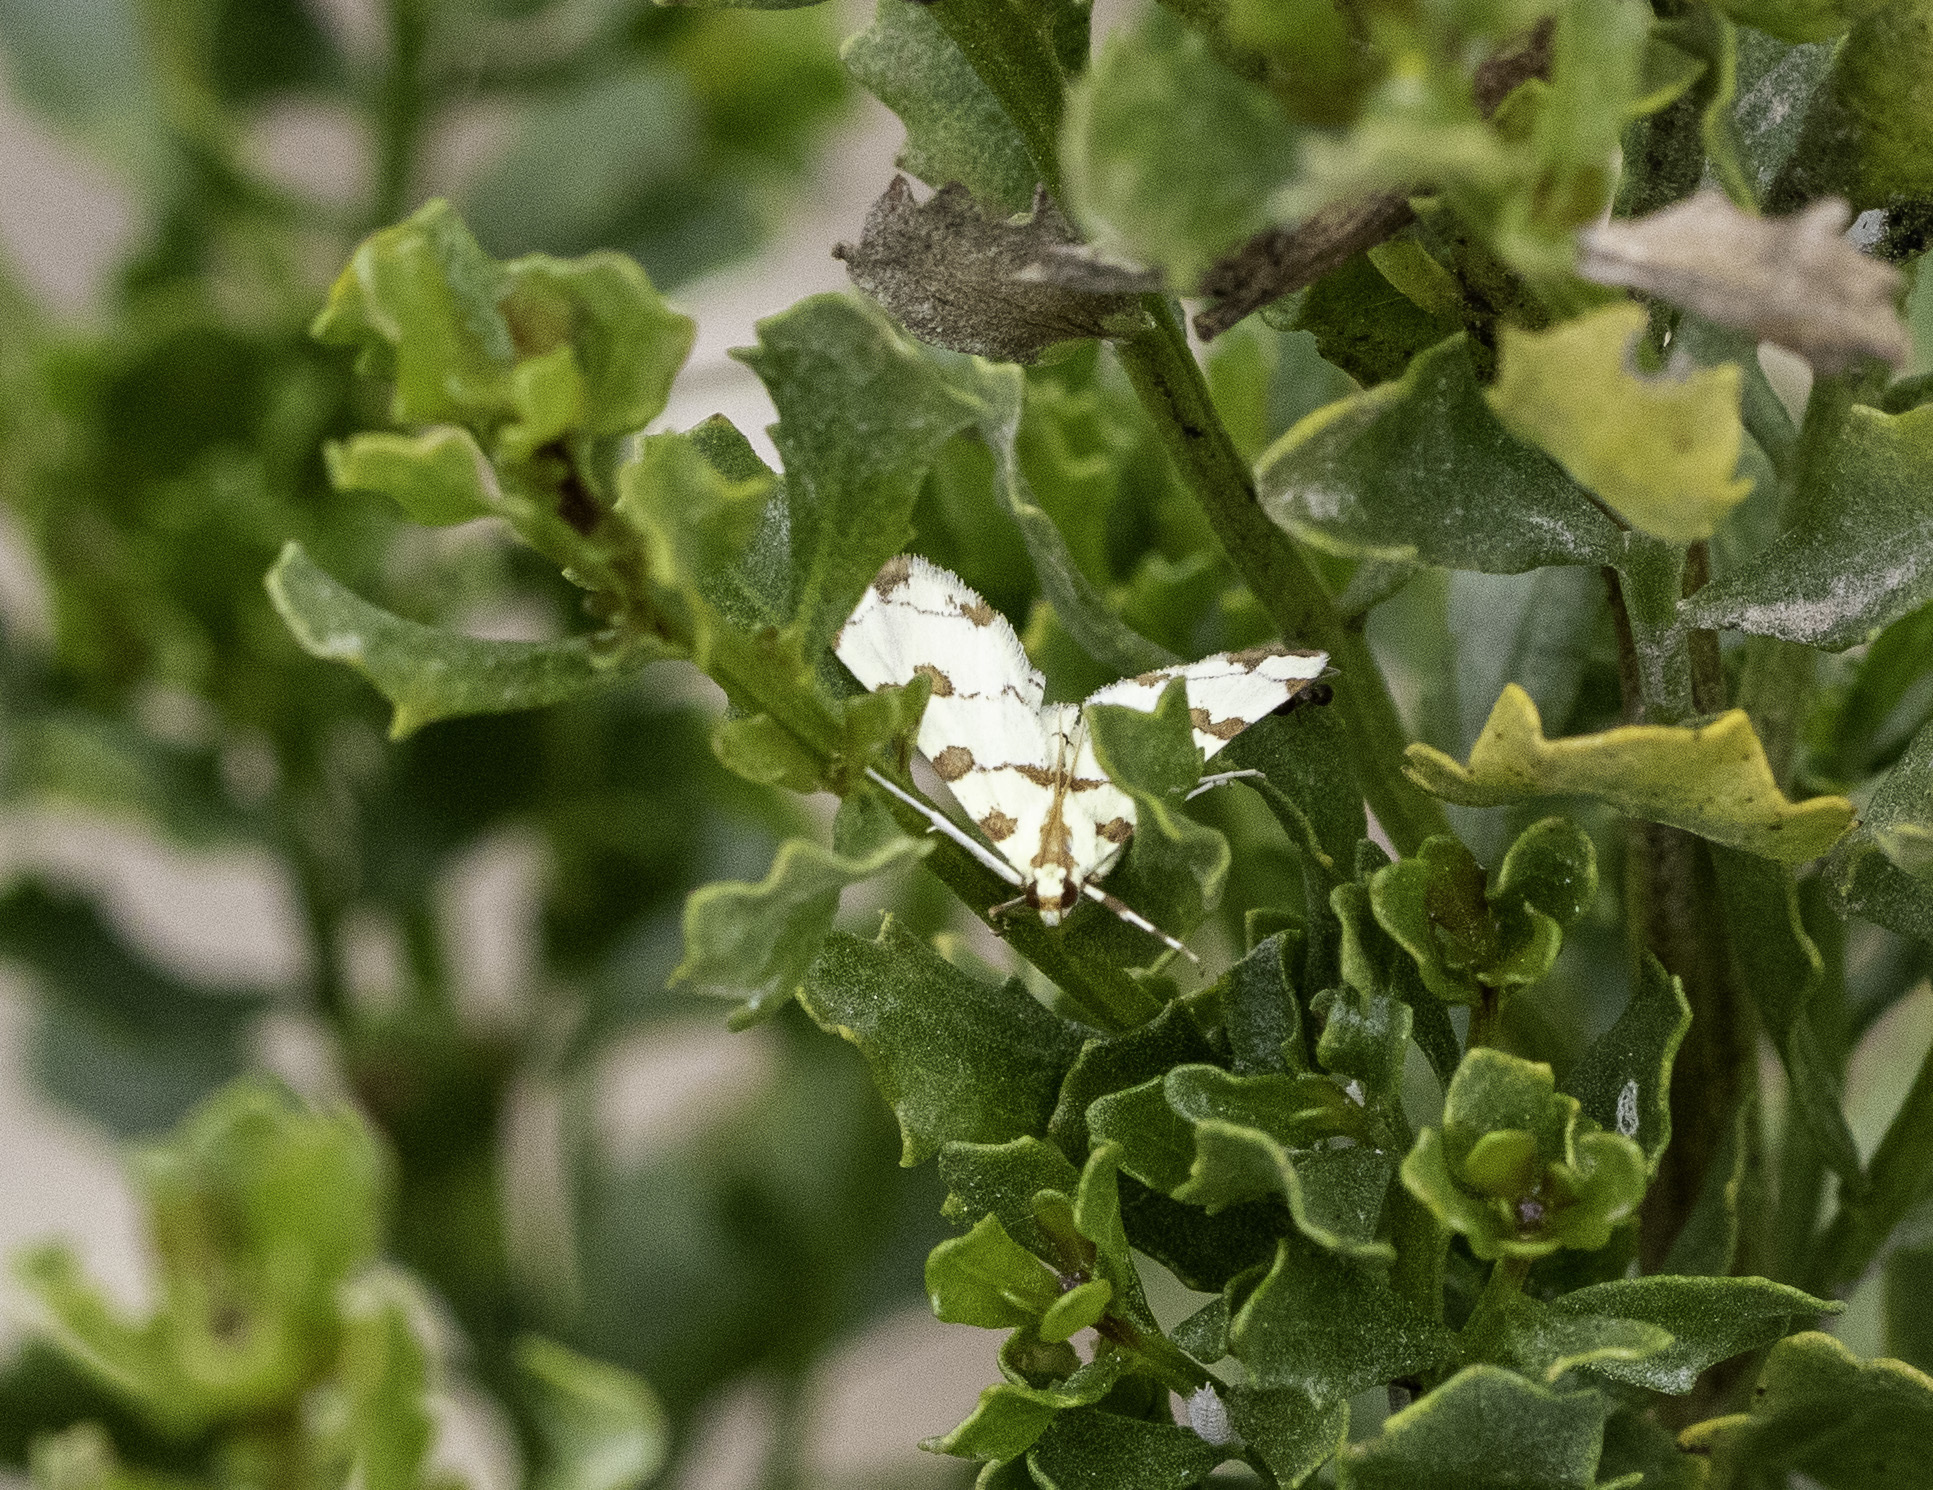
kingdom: Animalia
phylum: Arthropoda
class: Insecta
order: Lepidoptera
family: Crambidae
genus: Conchylodes
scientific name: Conchylodes
